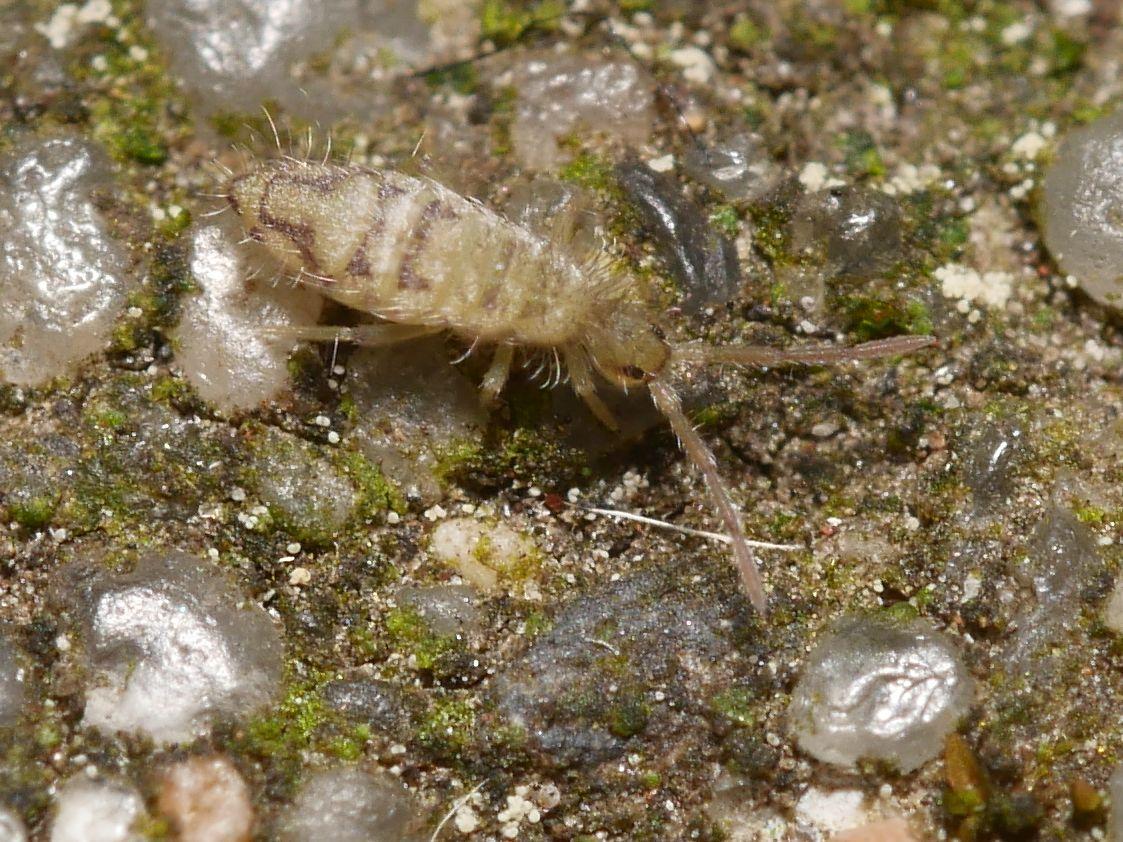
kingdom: Animalia
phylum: Arthropoda
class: Collembola
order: Entomobryomorpha
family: Entomobryidae
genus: Entomobrya
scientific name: Entomobrya nivalis
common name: Cosmopolitan springtail
